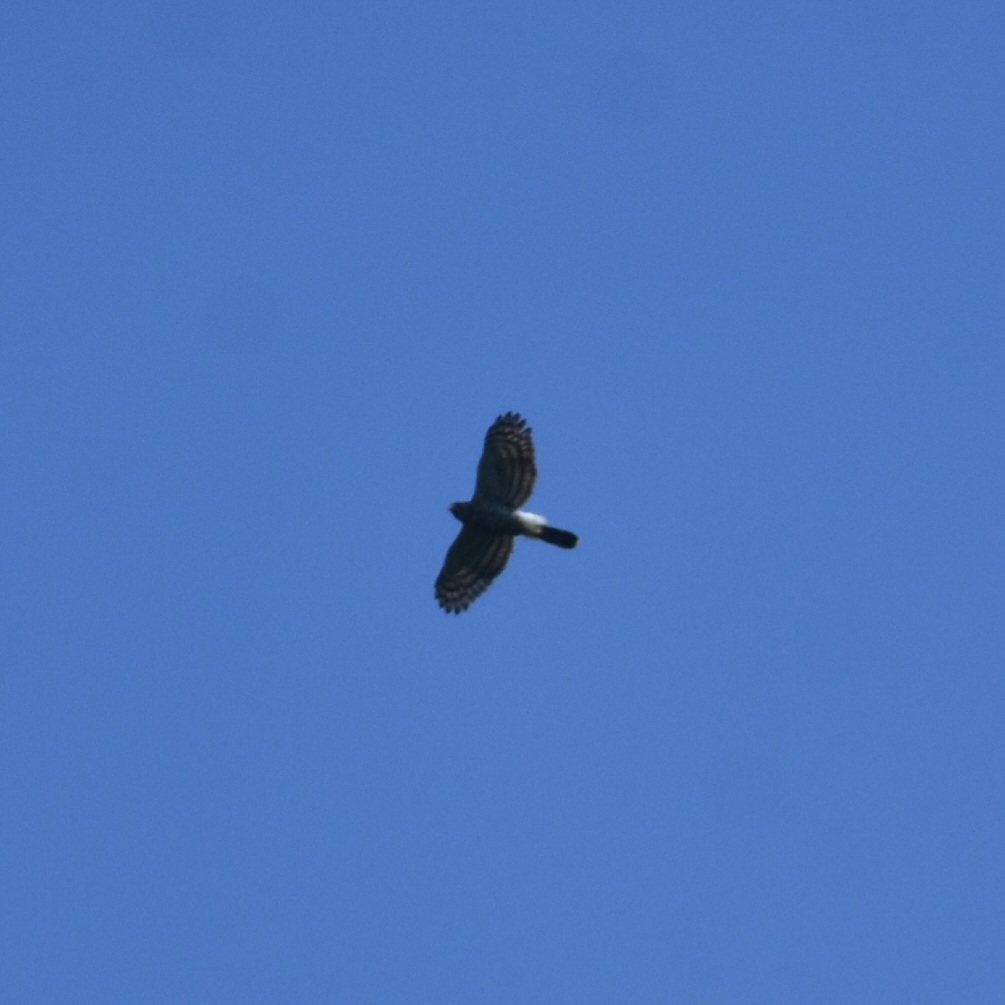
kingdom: Animalia
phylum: Chordata
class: Aves
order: Accipitriformes
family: Accipitridae
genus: Accipiter
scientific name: Accipiter trivirgatus
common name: Crested goshawk
